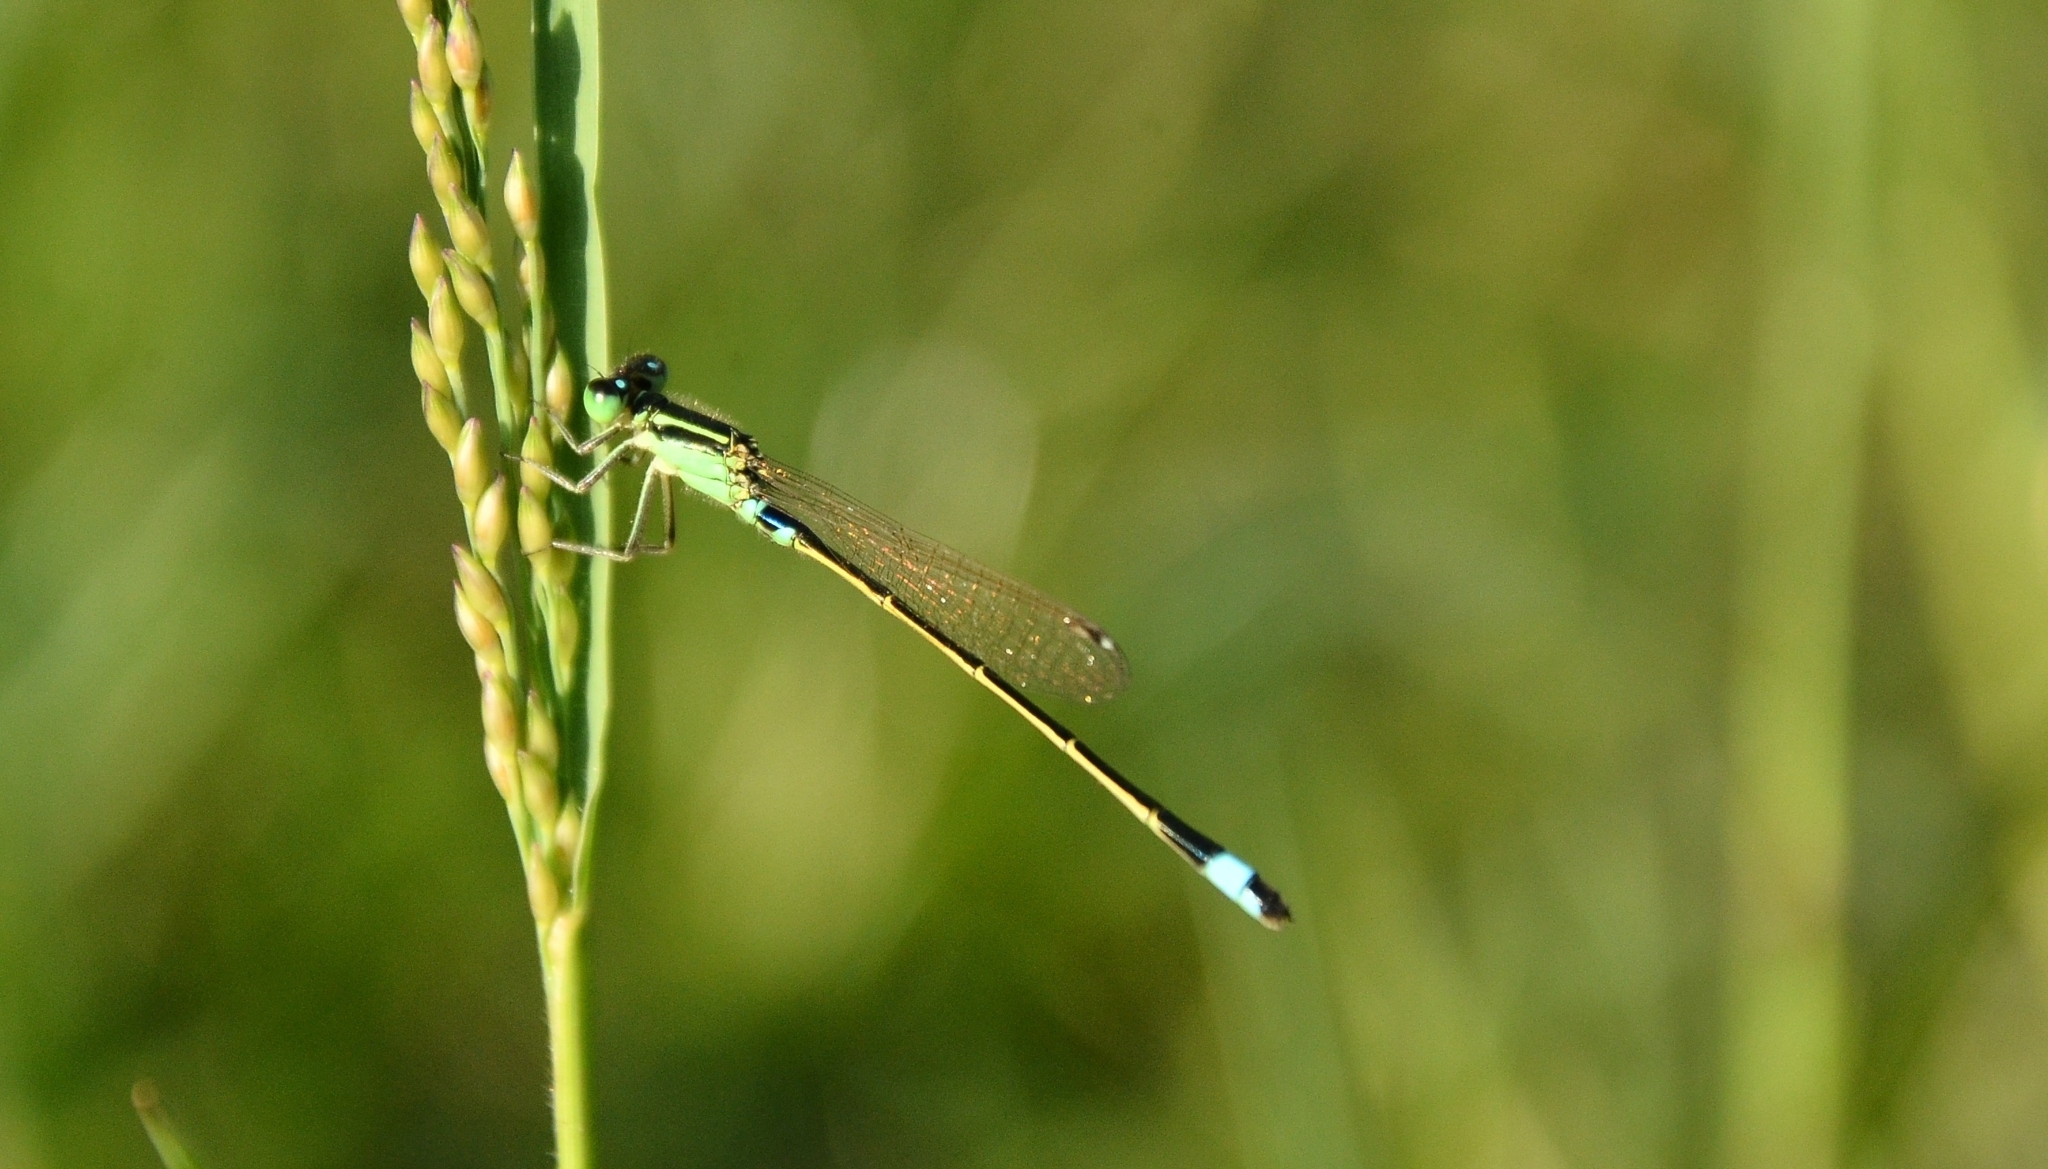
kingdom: Animalia
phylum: Arthropoda
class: Insecta
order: Odonata
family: Coenagrionidae
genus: Ischnura
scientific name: Ischnura senegalensis
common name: Tropical bluetail
